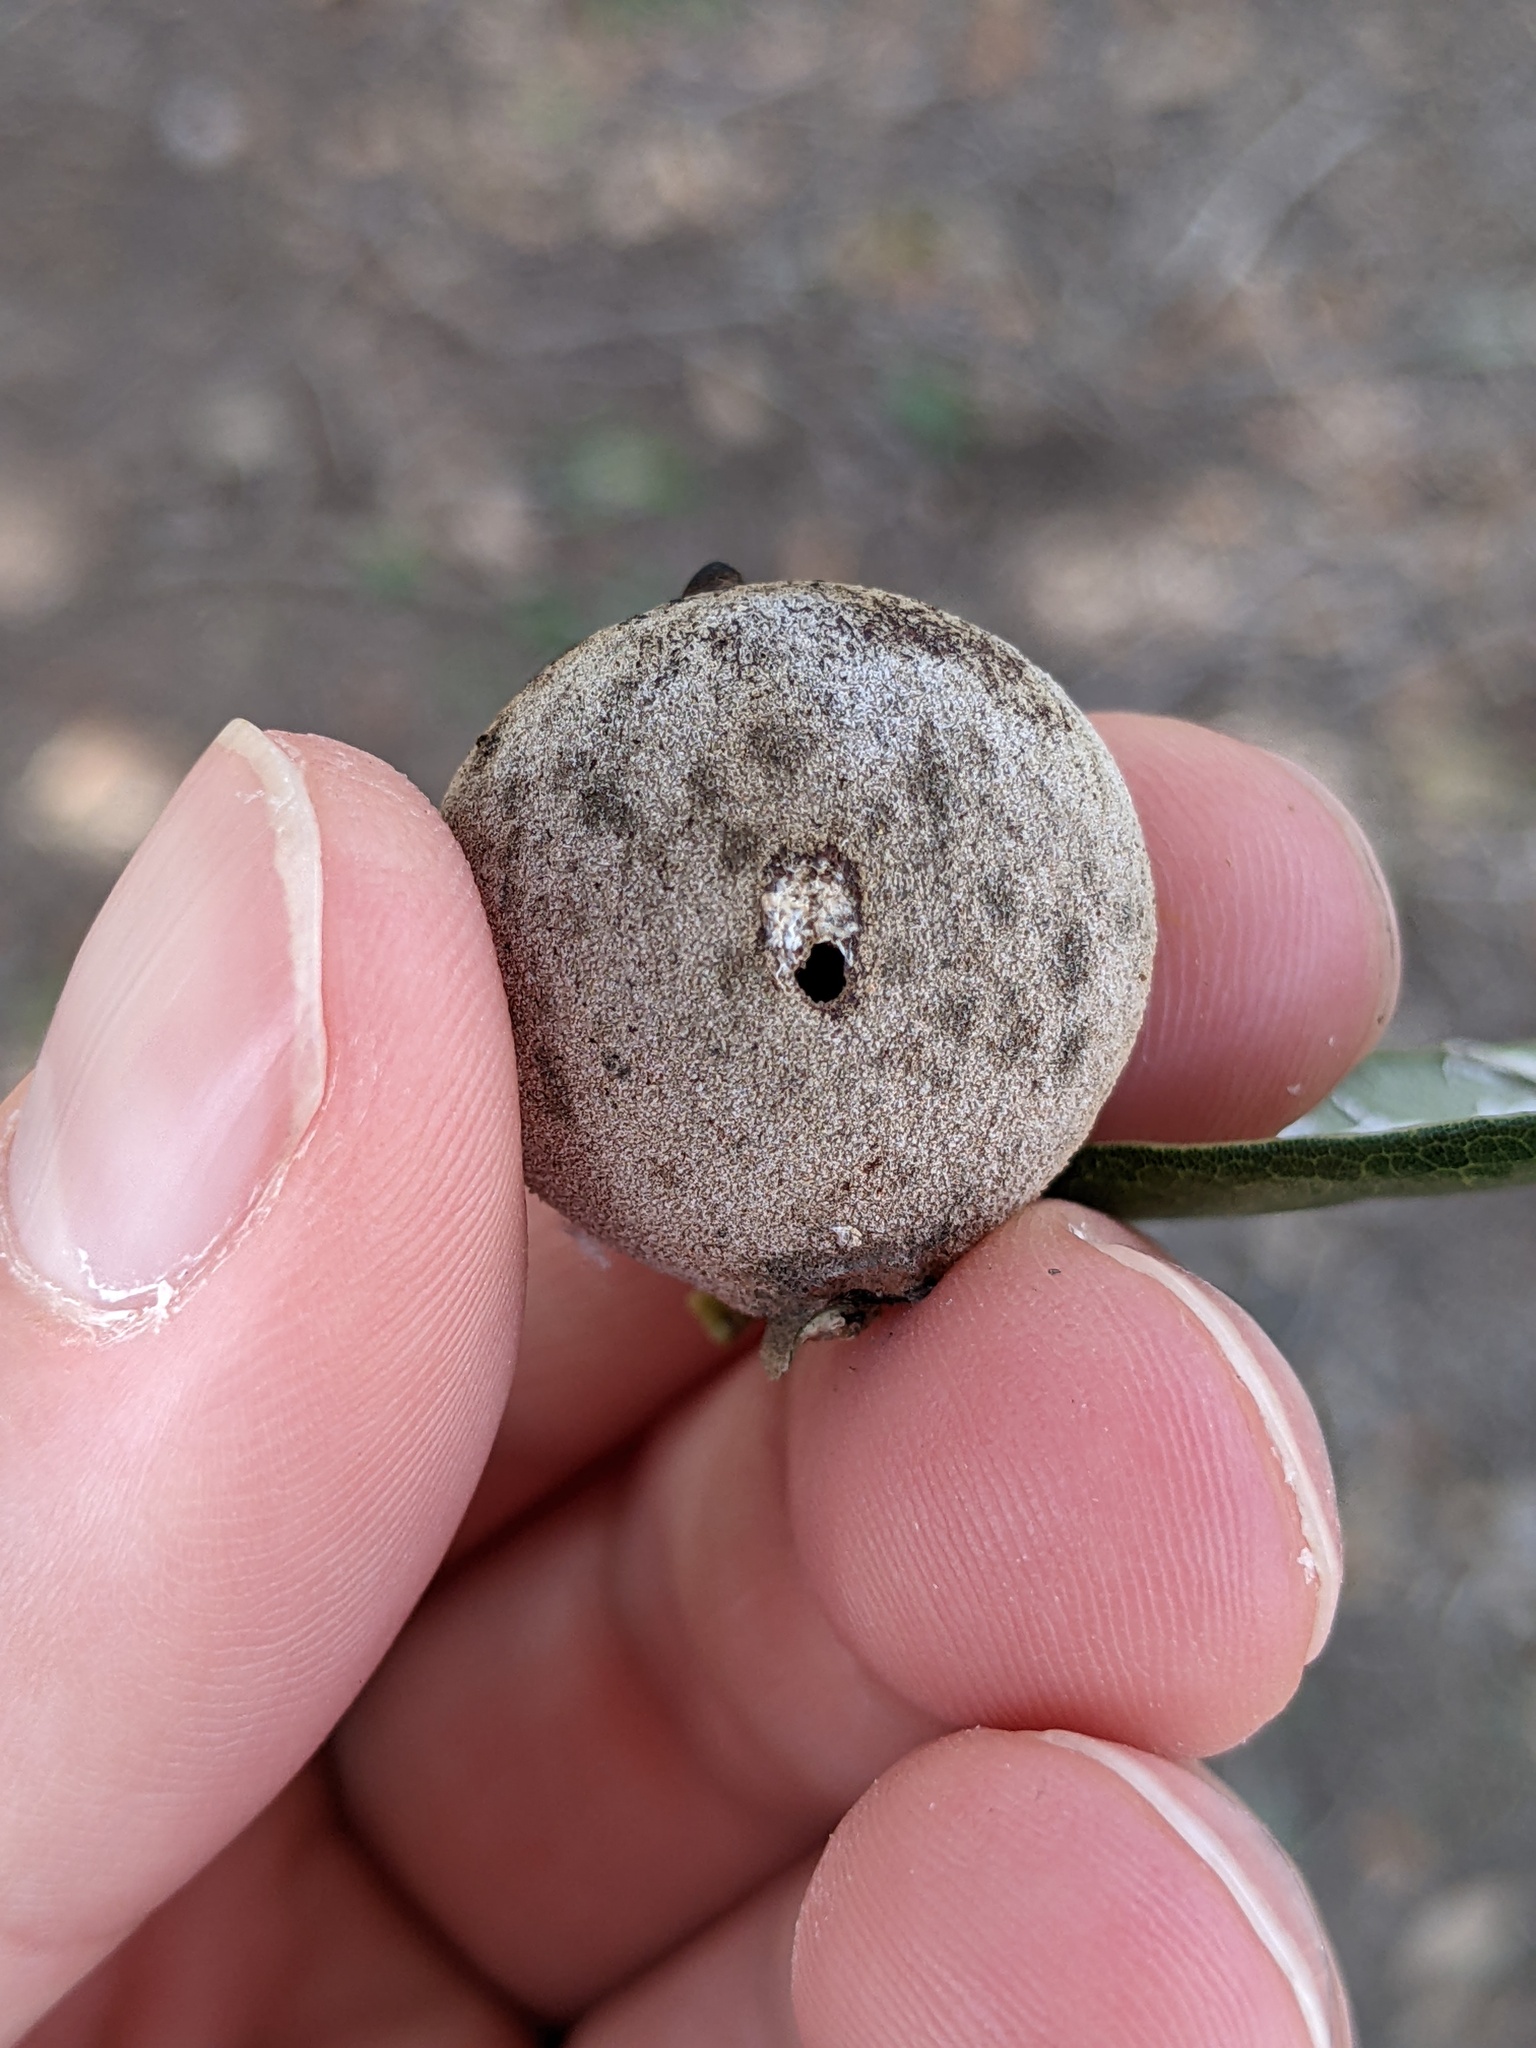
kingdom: Animalia
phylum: Arthropoda
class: Insecta
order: Hymenoptera
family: Cynipidae
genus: Disholcaspis
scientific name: Disholcaspis
